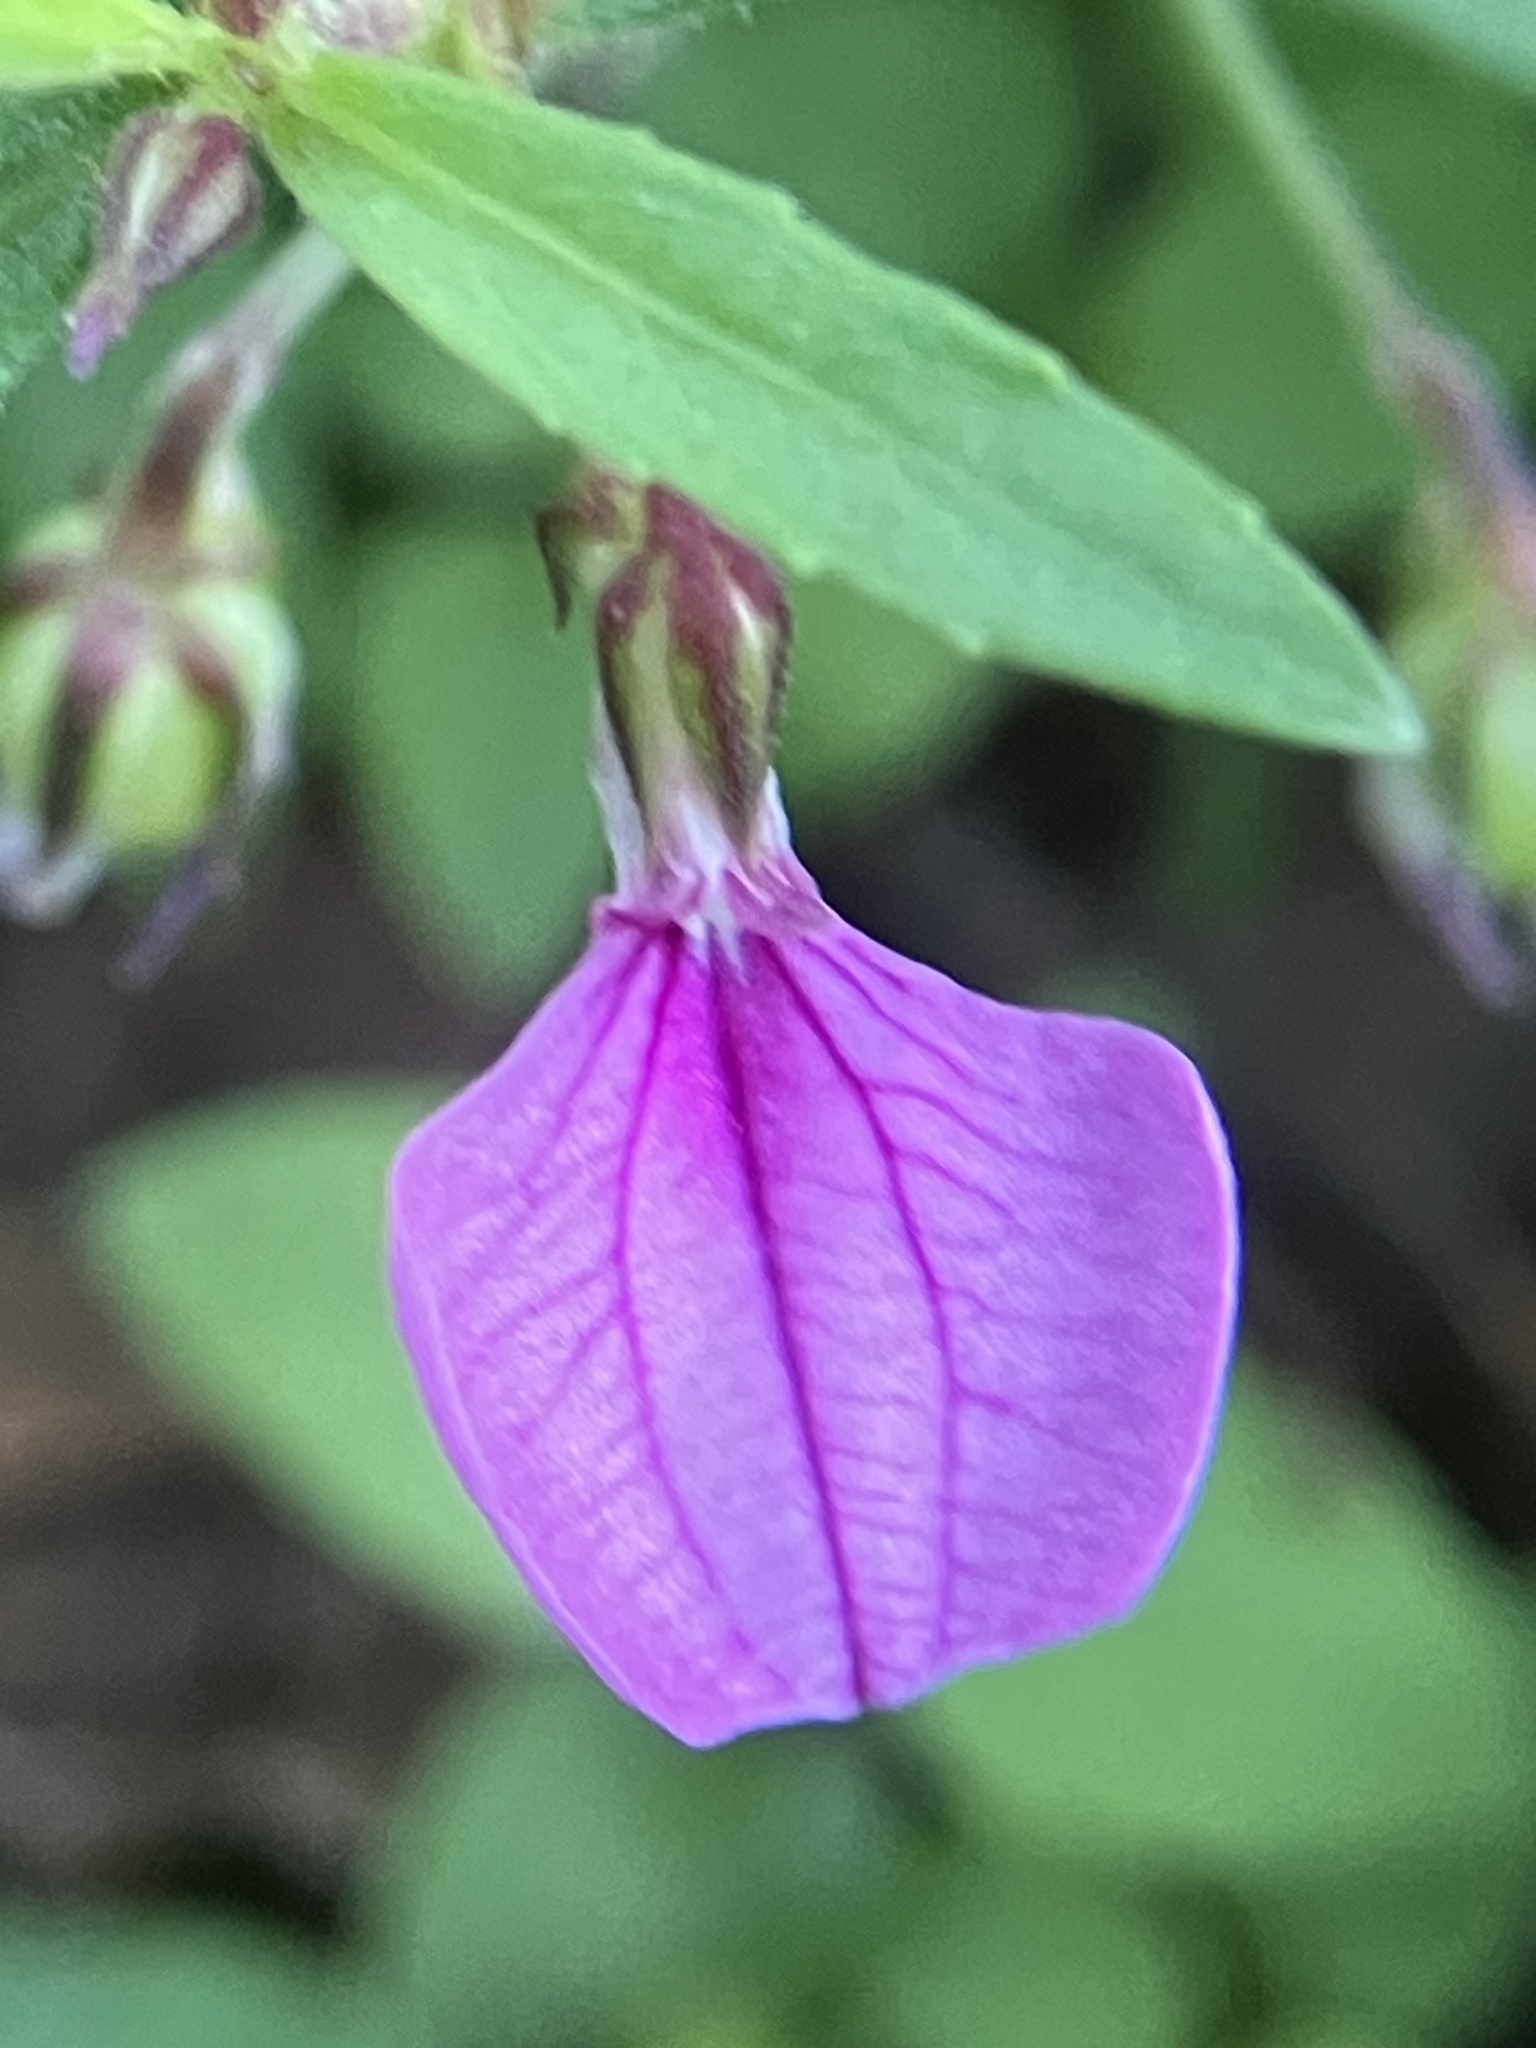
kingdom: Plantae
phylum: Tracheophyta
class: Magnoliopsida
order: Malpighiales
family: Violaceae
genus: Pigea
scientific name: Pigea enneasperma
